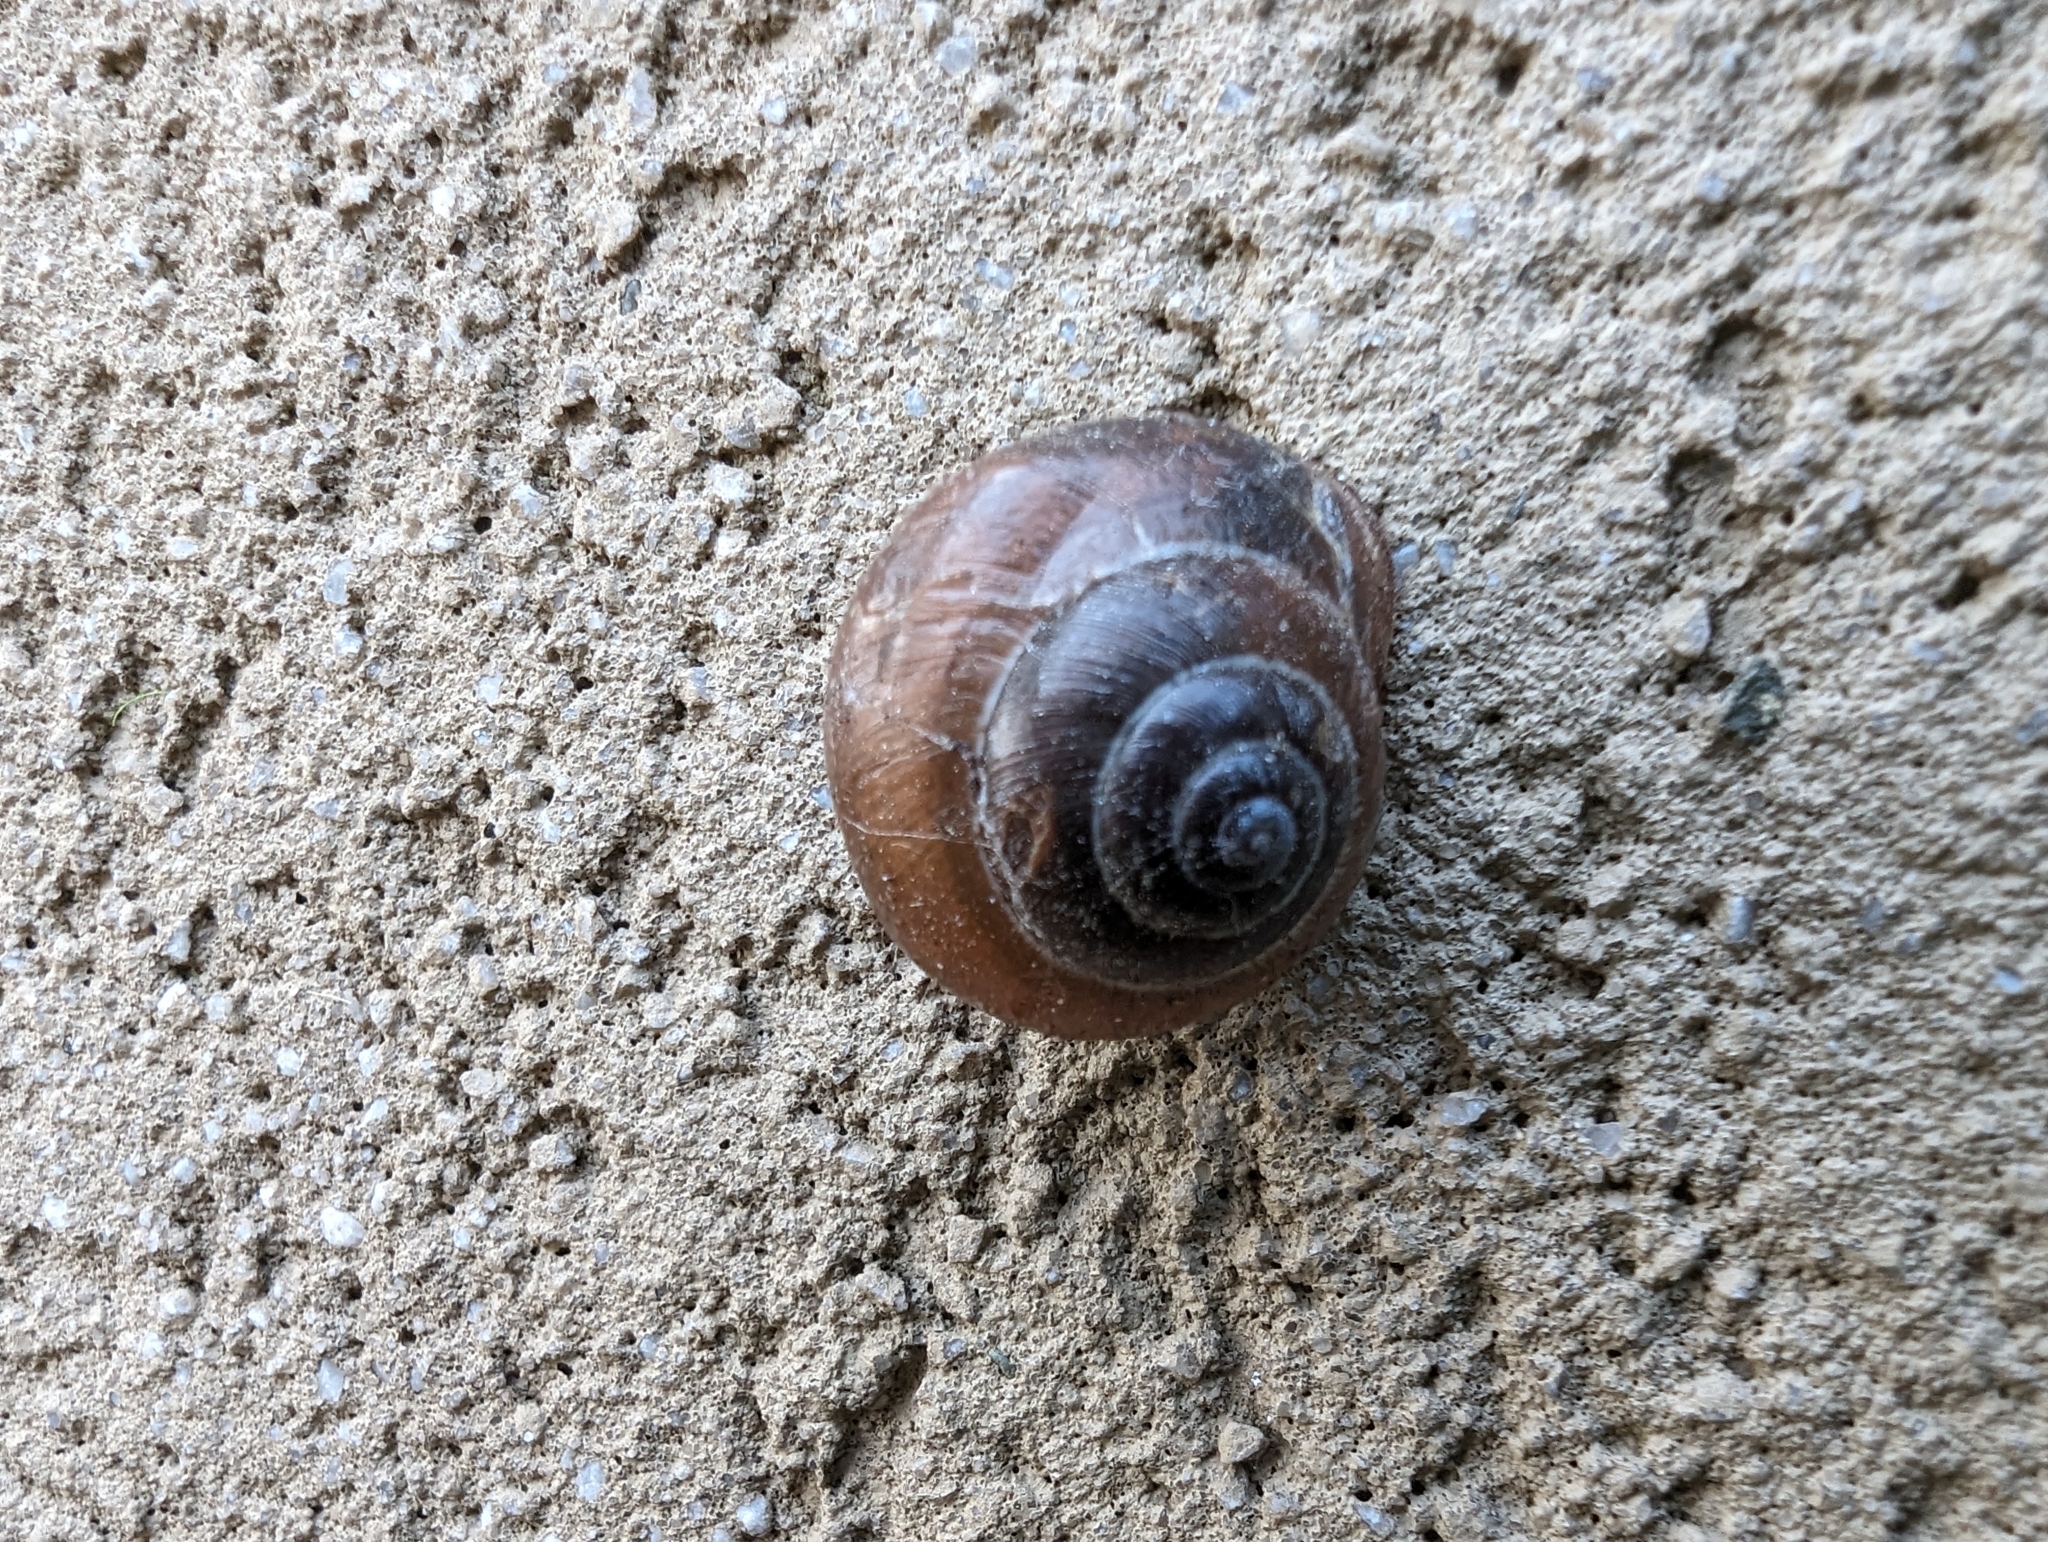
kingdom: Animalia
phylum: Mollusca
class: Gastropoda
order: Stylommatophora
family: Helicidae
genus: Cepaea
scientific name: Cepaea nemoralis
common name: Grovesnail
